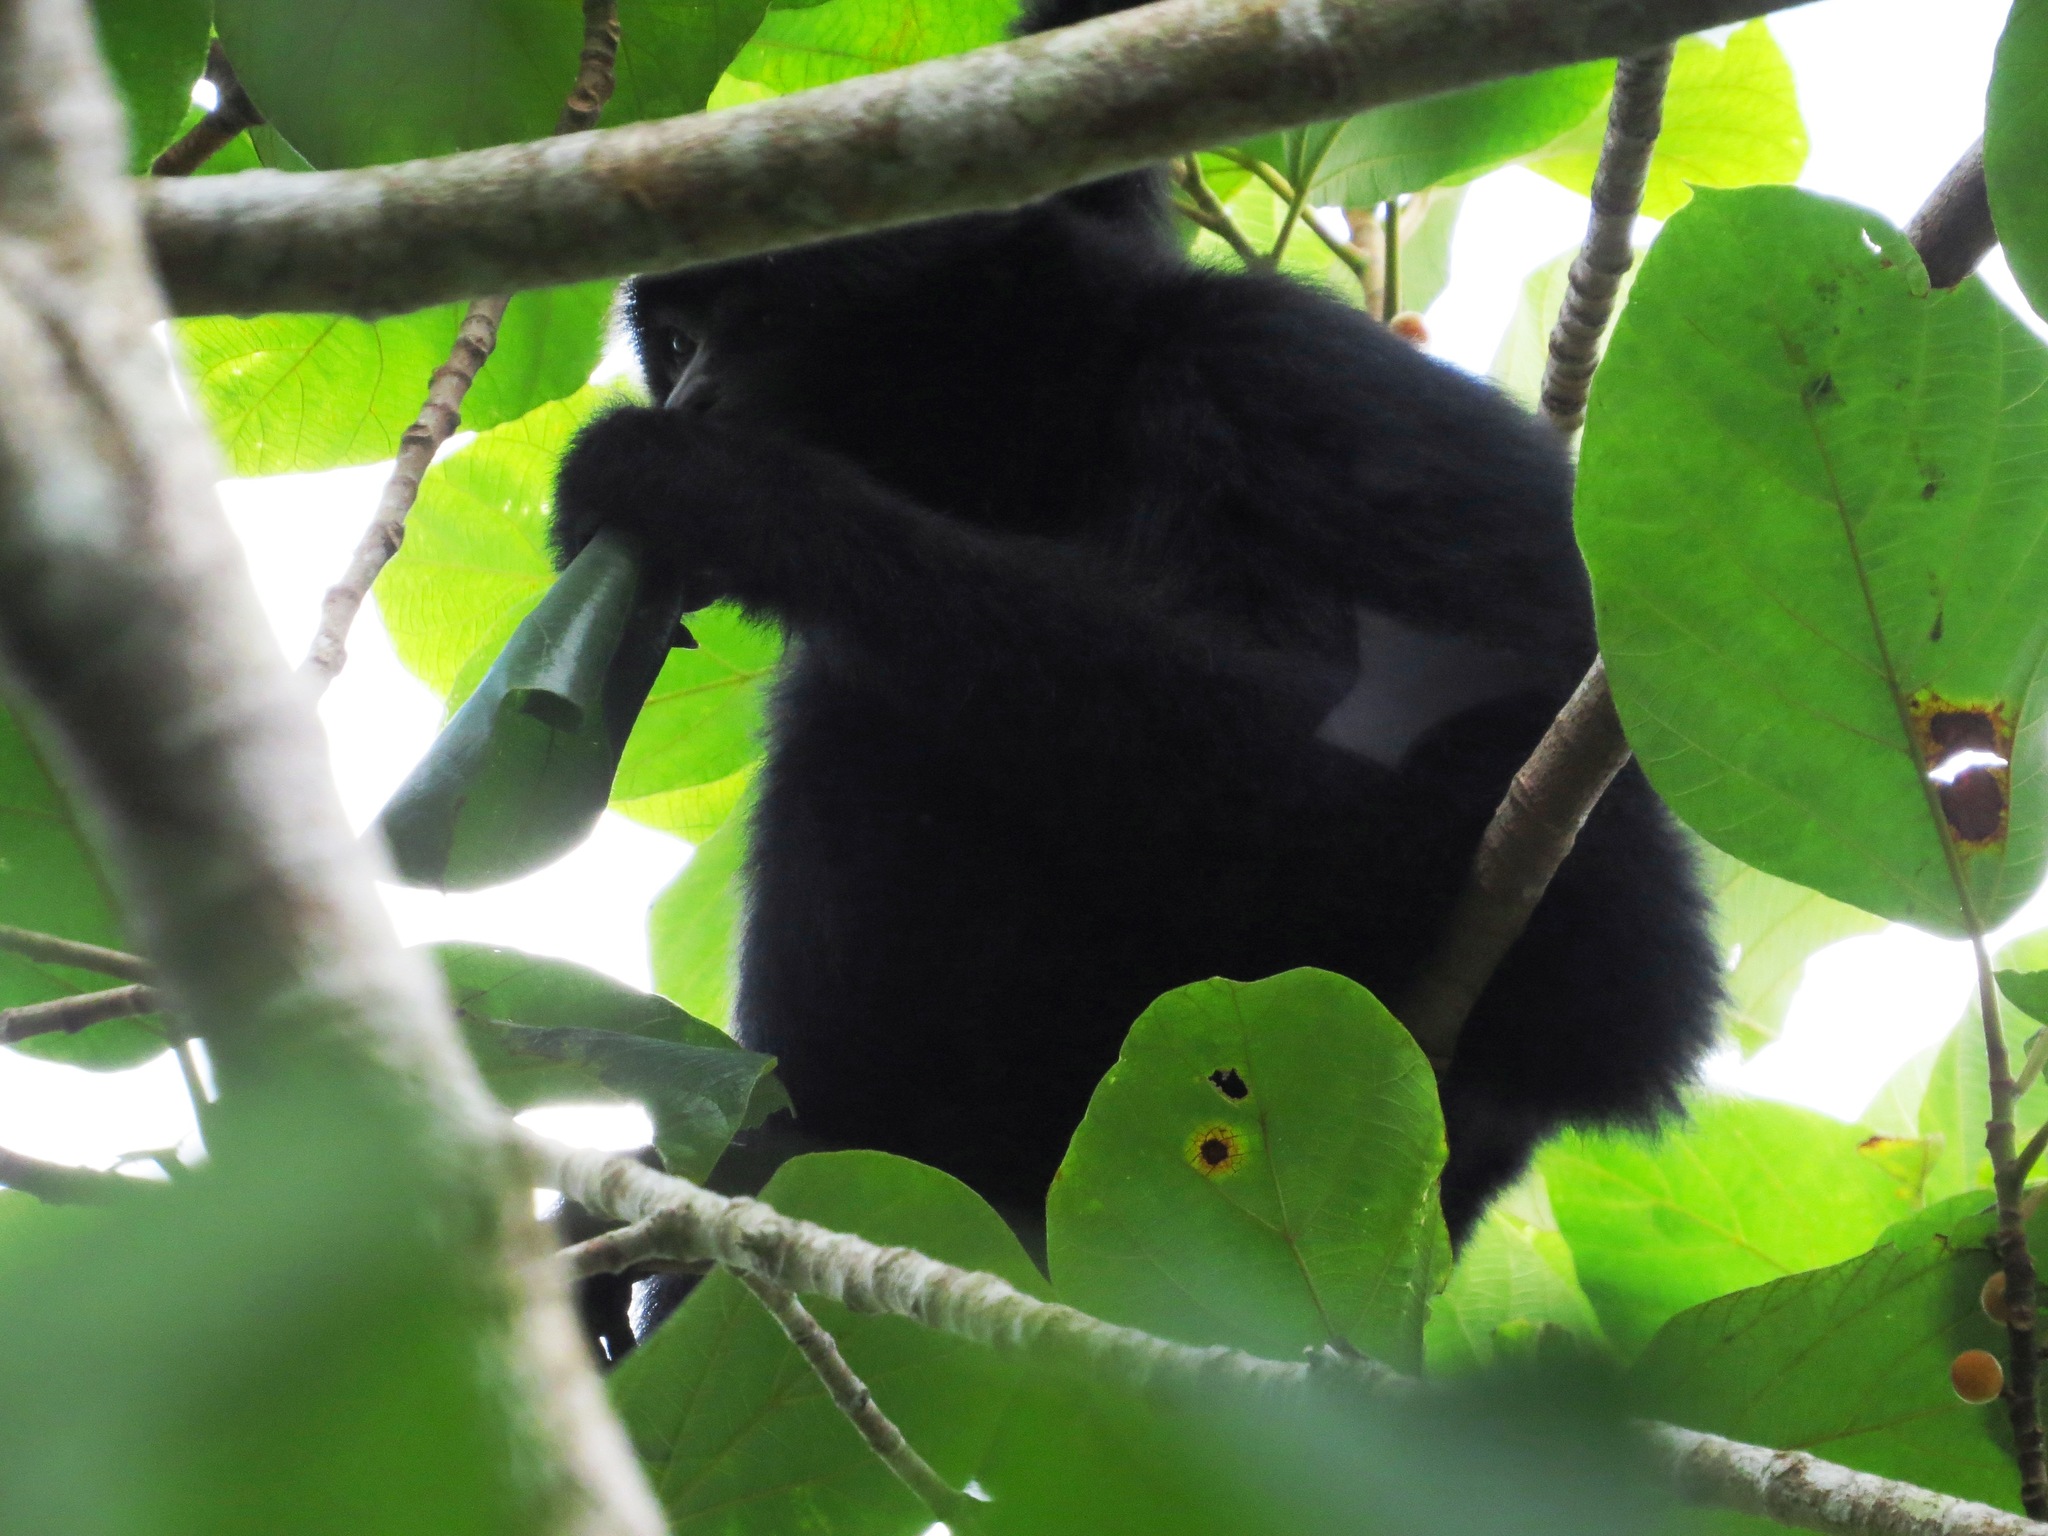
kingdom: Animalia
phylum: Chordata
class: Mammalia
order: Primates
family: Hylobatidae
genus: Symphalangus
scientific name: Symphalangus syndactylus
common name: Siamang
